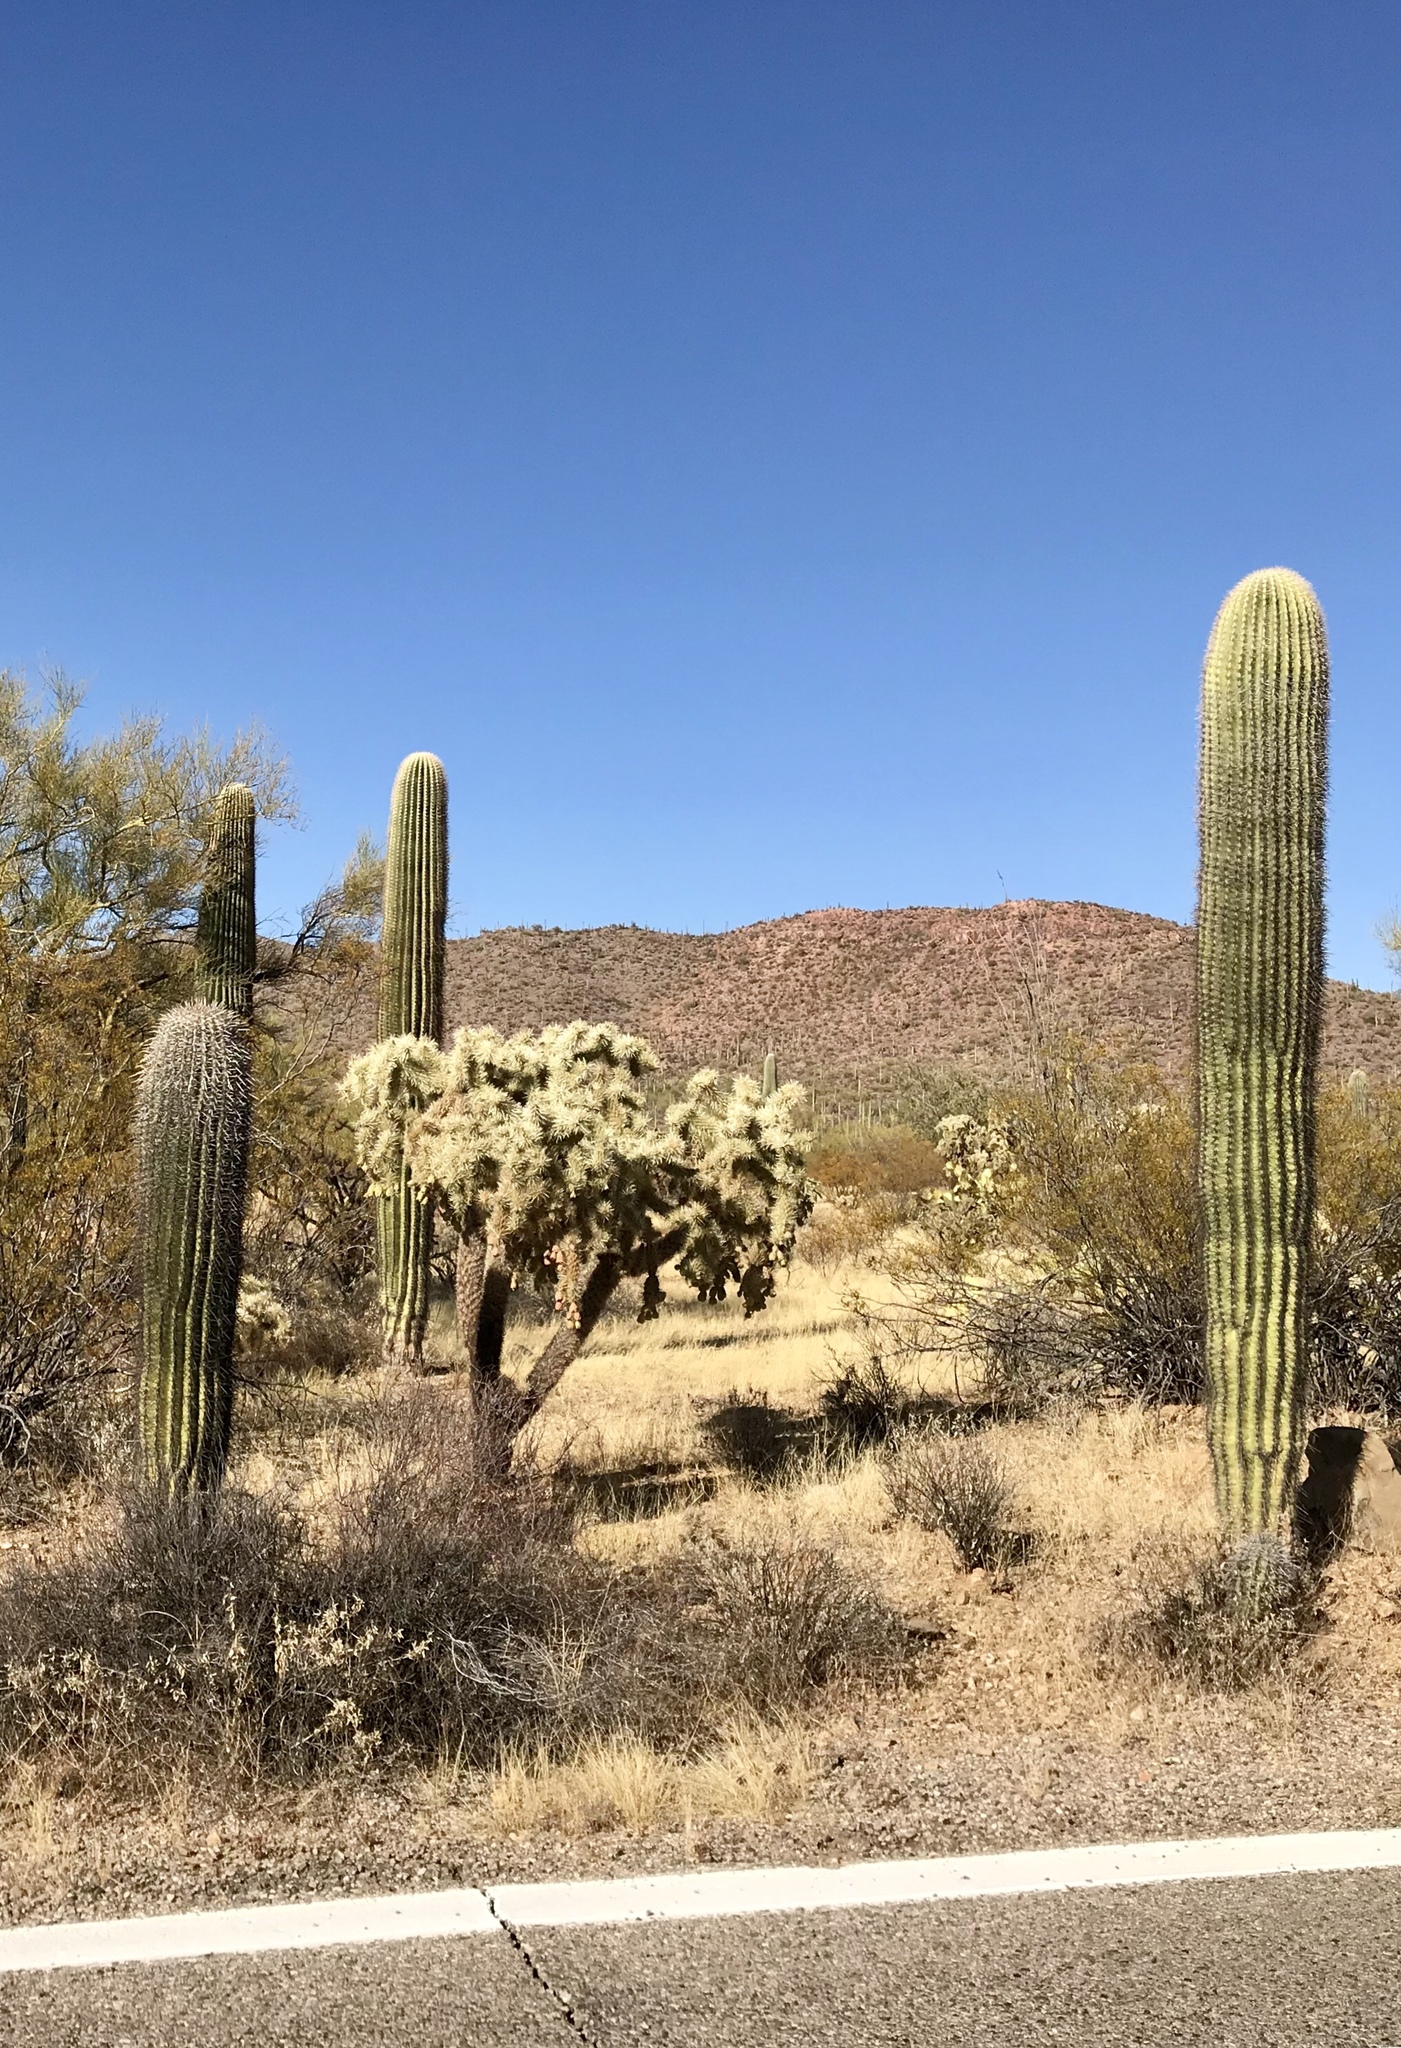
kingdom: Plantae
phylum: Tracheophyta
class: Magnoliopsida
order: Caryophyllales
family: Cactaceae
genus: Carnegiea
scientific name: Carnegiea gigantea
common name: Saguaro
